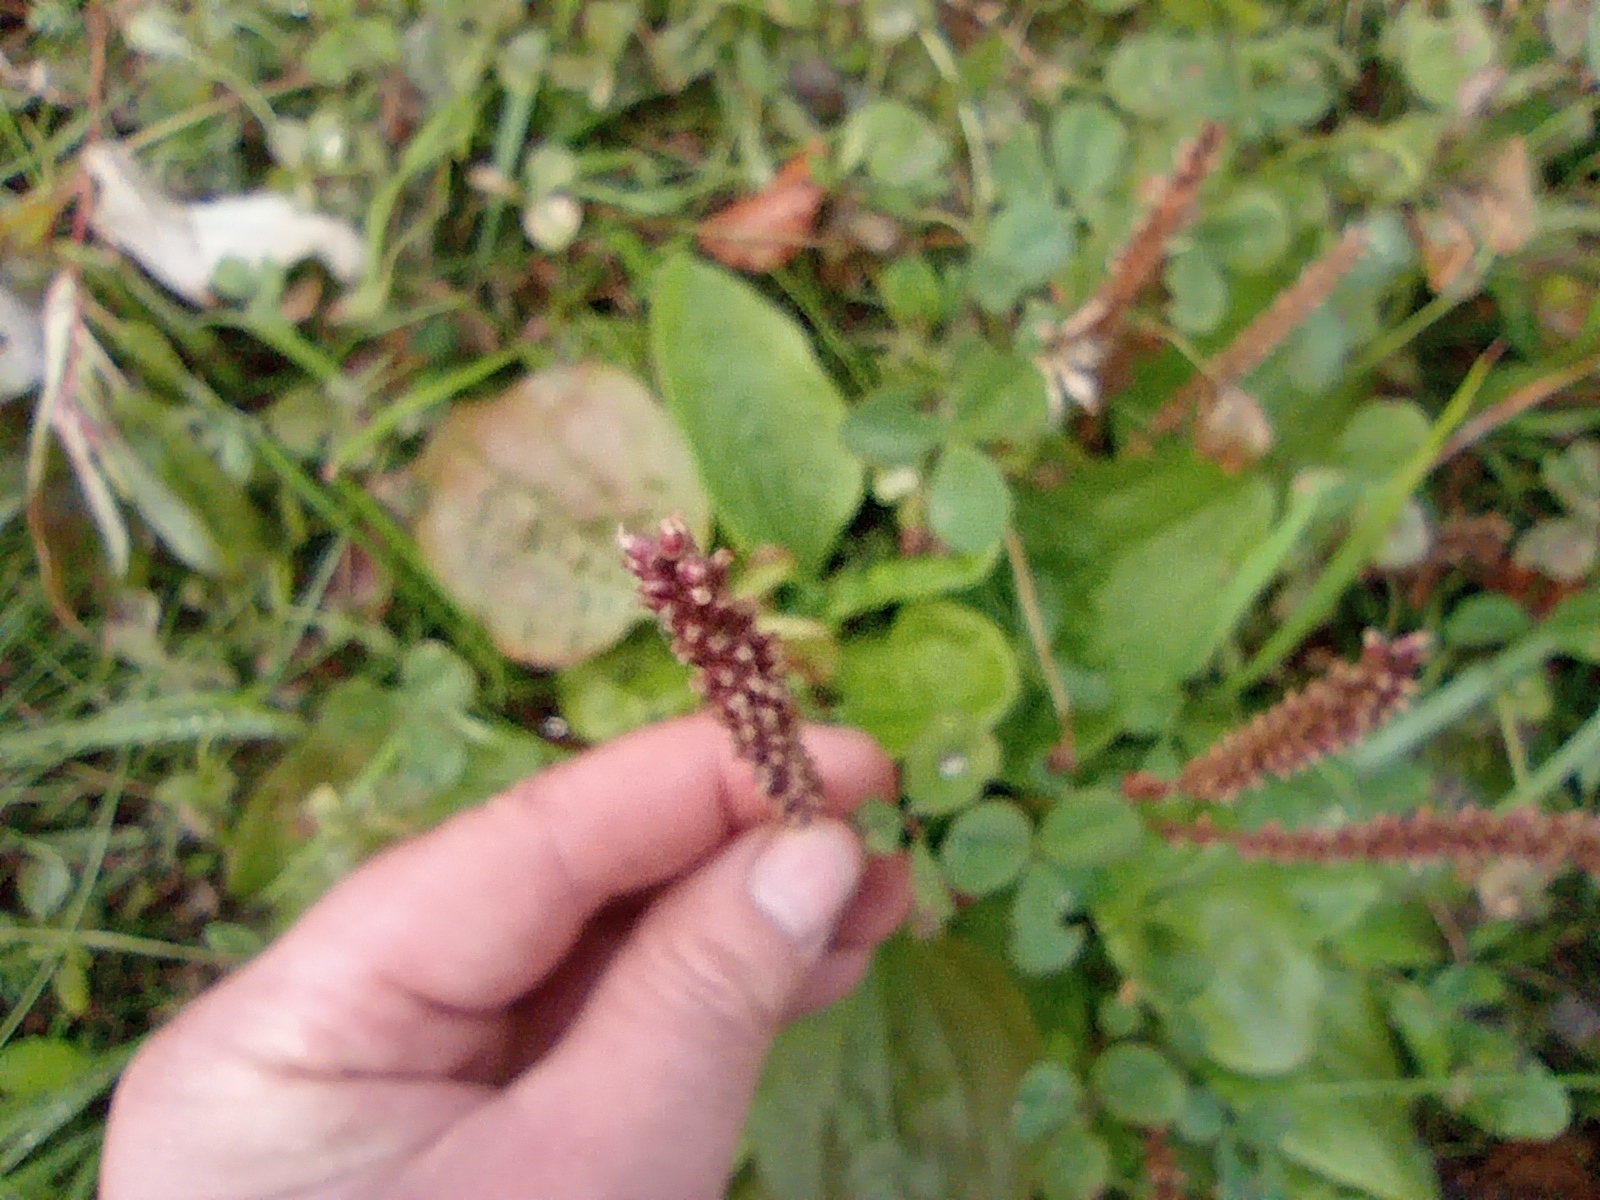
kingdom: Plantae
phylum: Tracheophyta
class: Magnoliopsida
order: Lamiales
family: Plantaginaceae
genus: Plantago
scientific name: Plantago major
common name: Common plantain
